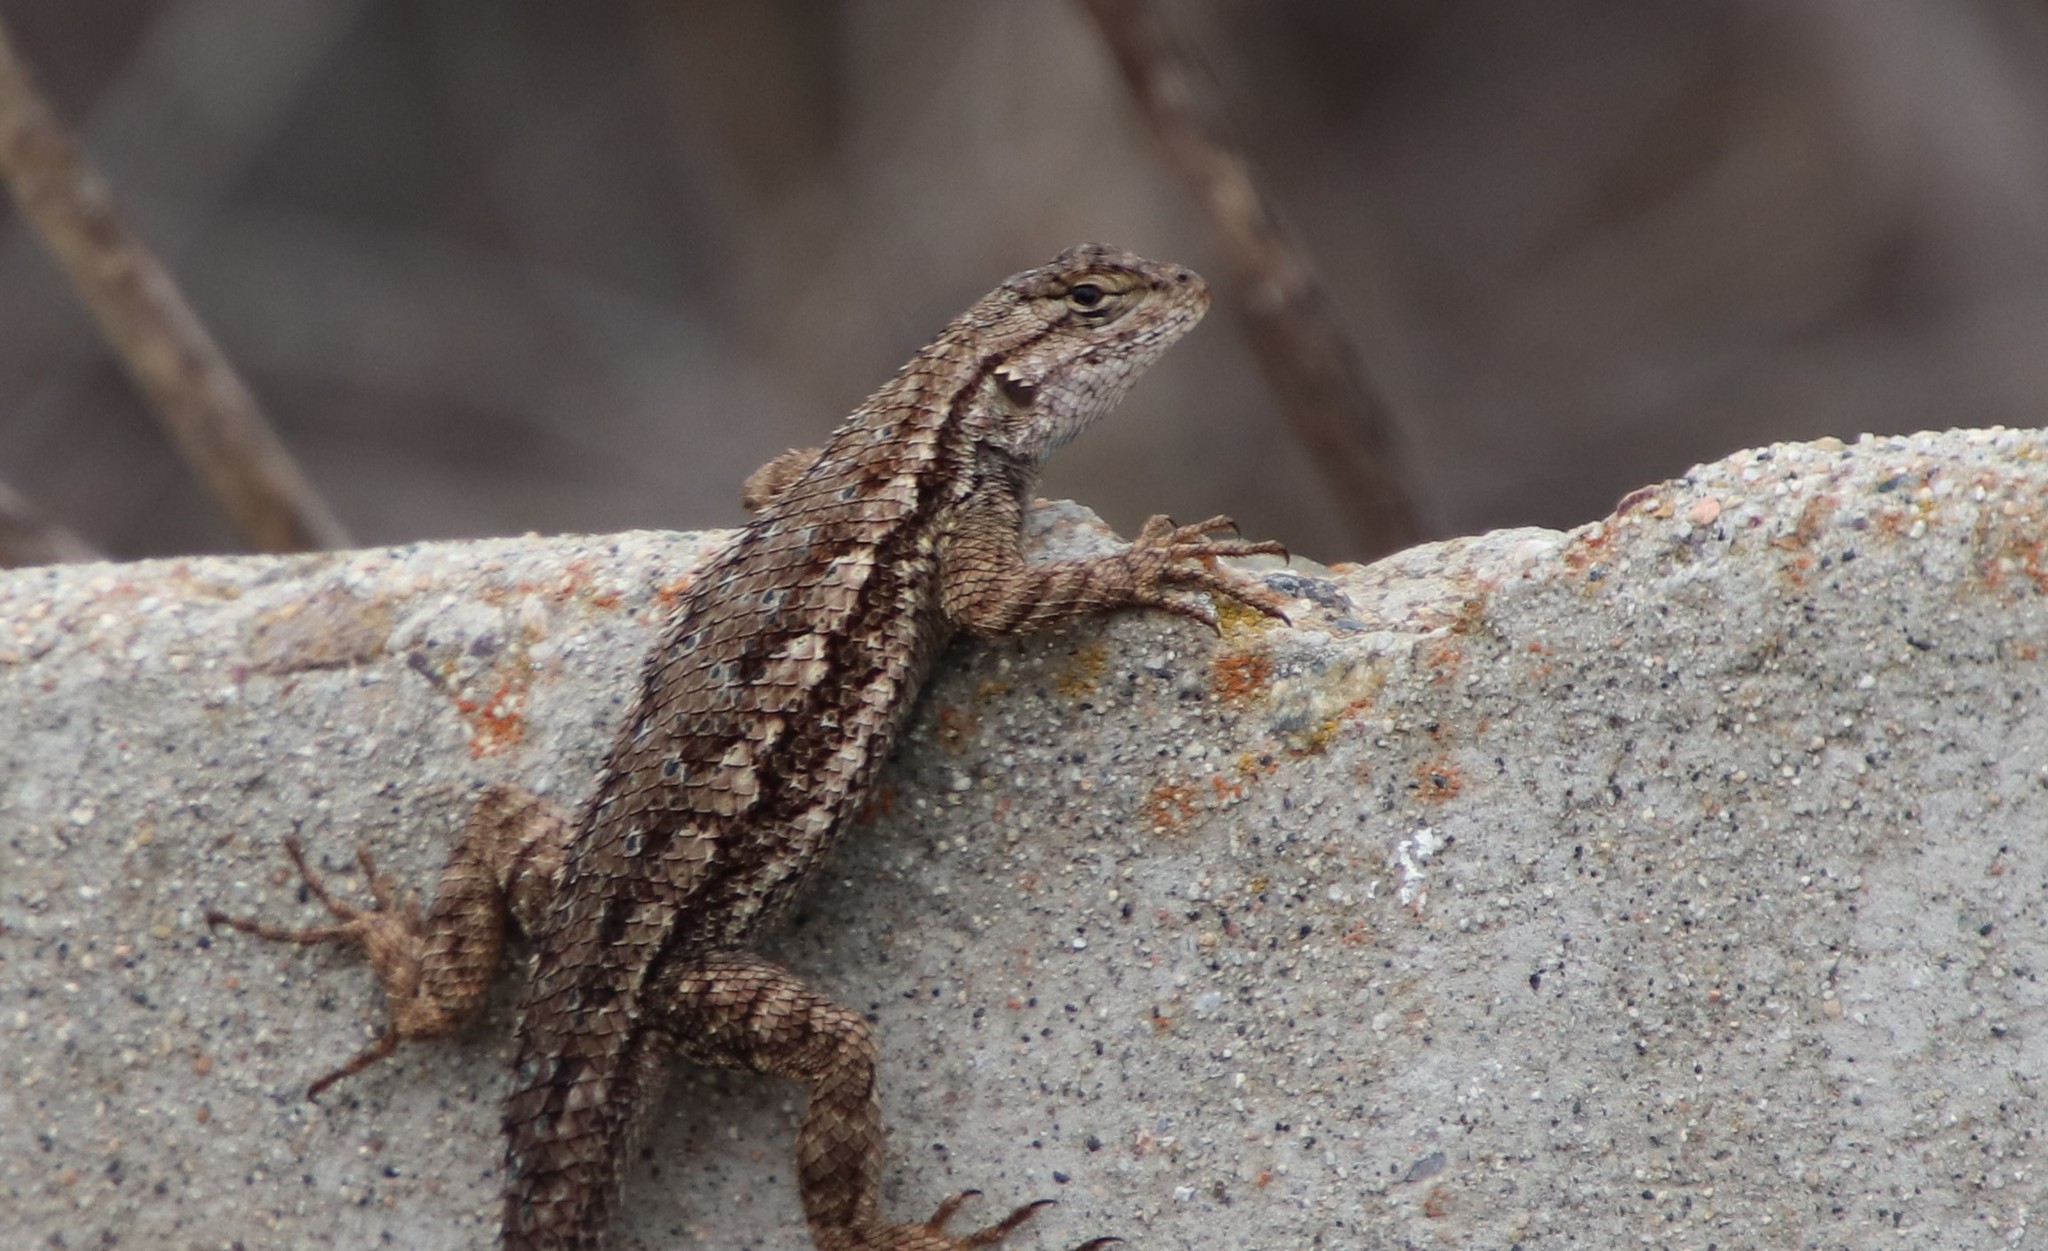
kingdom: Animalia
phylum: Chordata
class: Squamata
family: Phrynosomatidae
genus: Sceloporus
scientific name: Sceloporus occidentalis
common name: Western fence lizard
